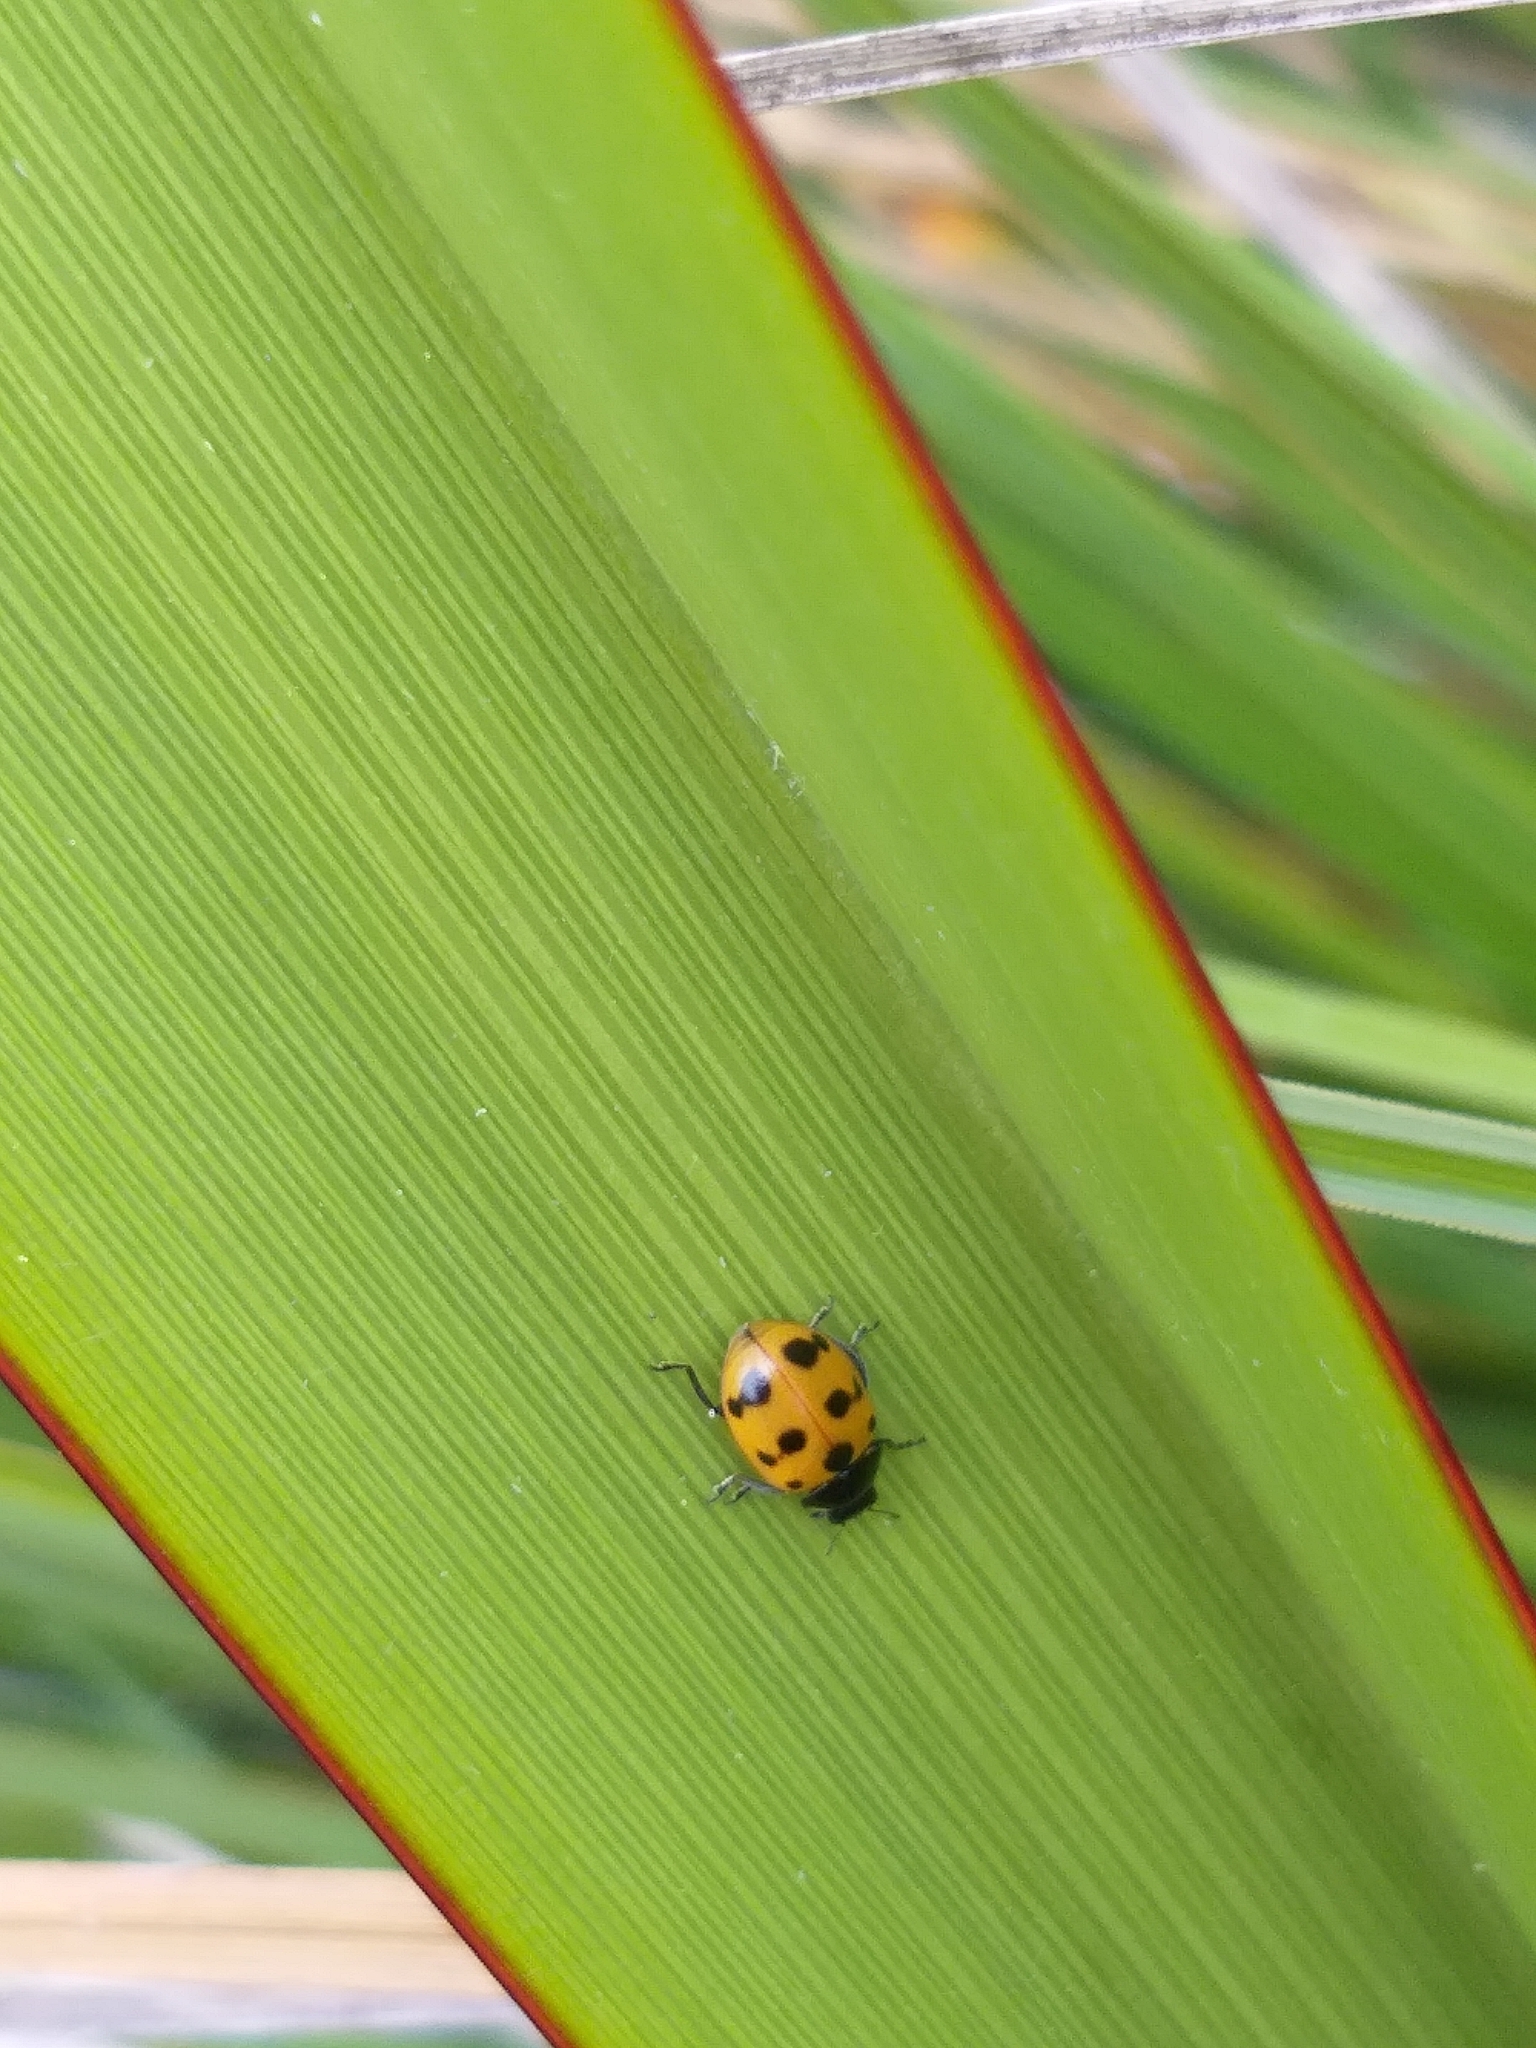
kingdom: Animalia
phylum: Arthropoda
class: Insecta
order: Coleoptera
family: Coccinellidae
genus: Coccinella
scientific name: Coccinella undecimpunctata
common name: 11-spot ladybird
